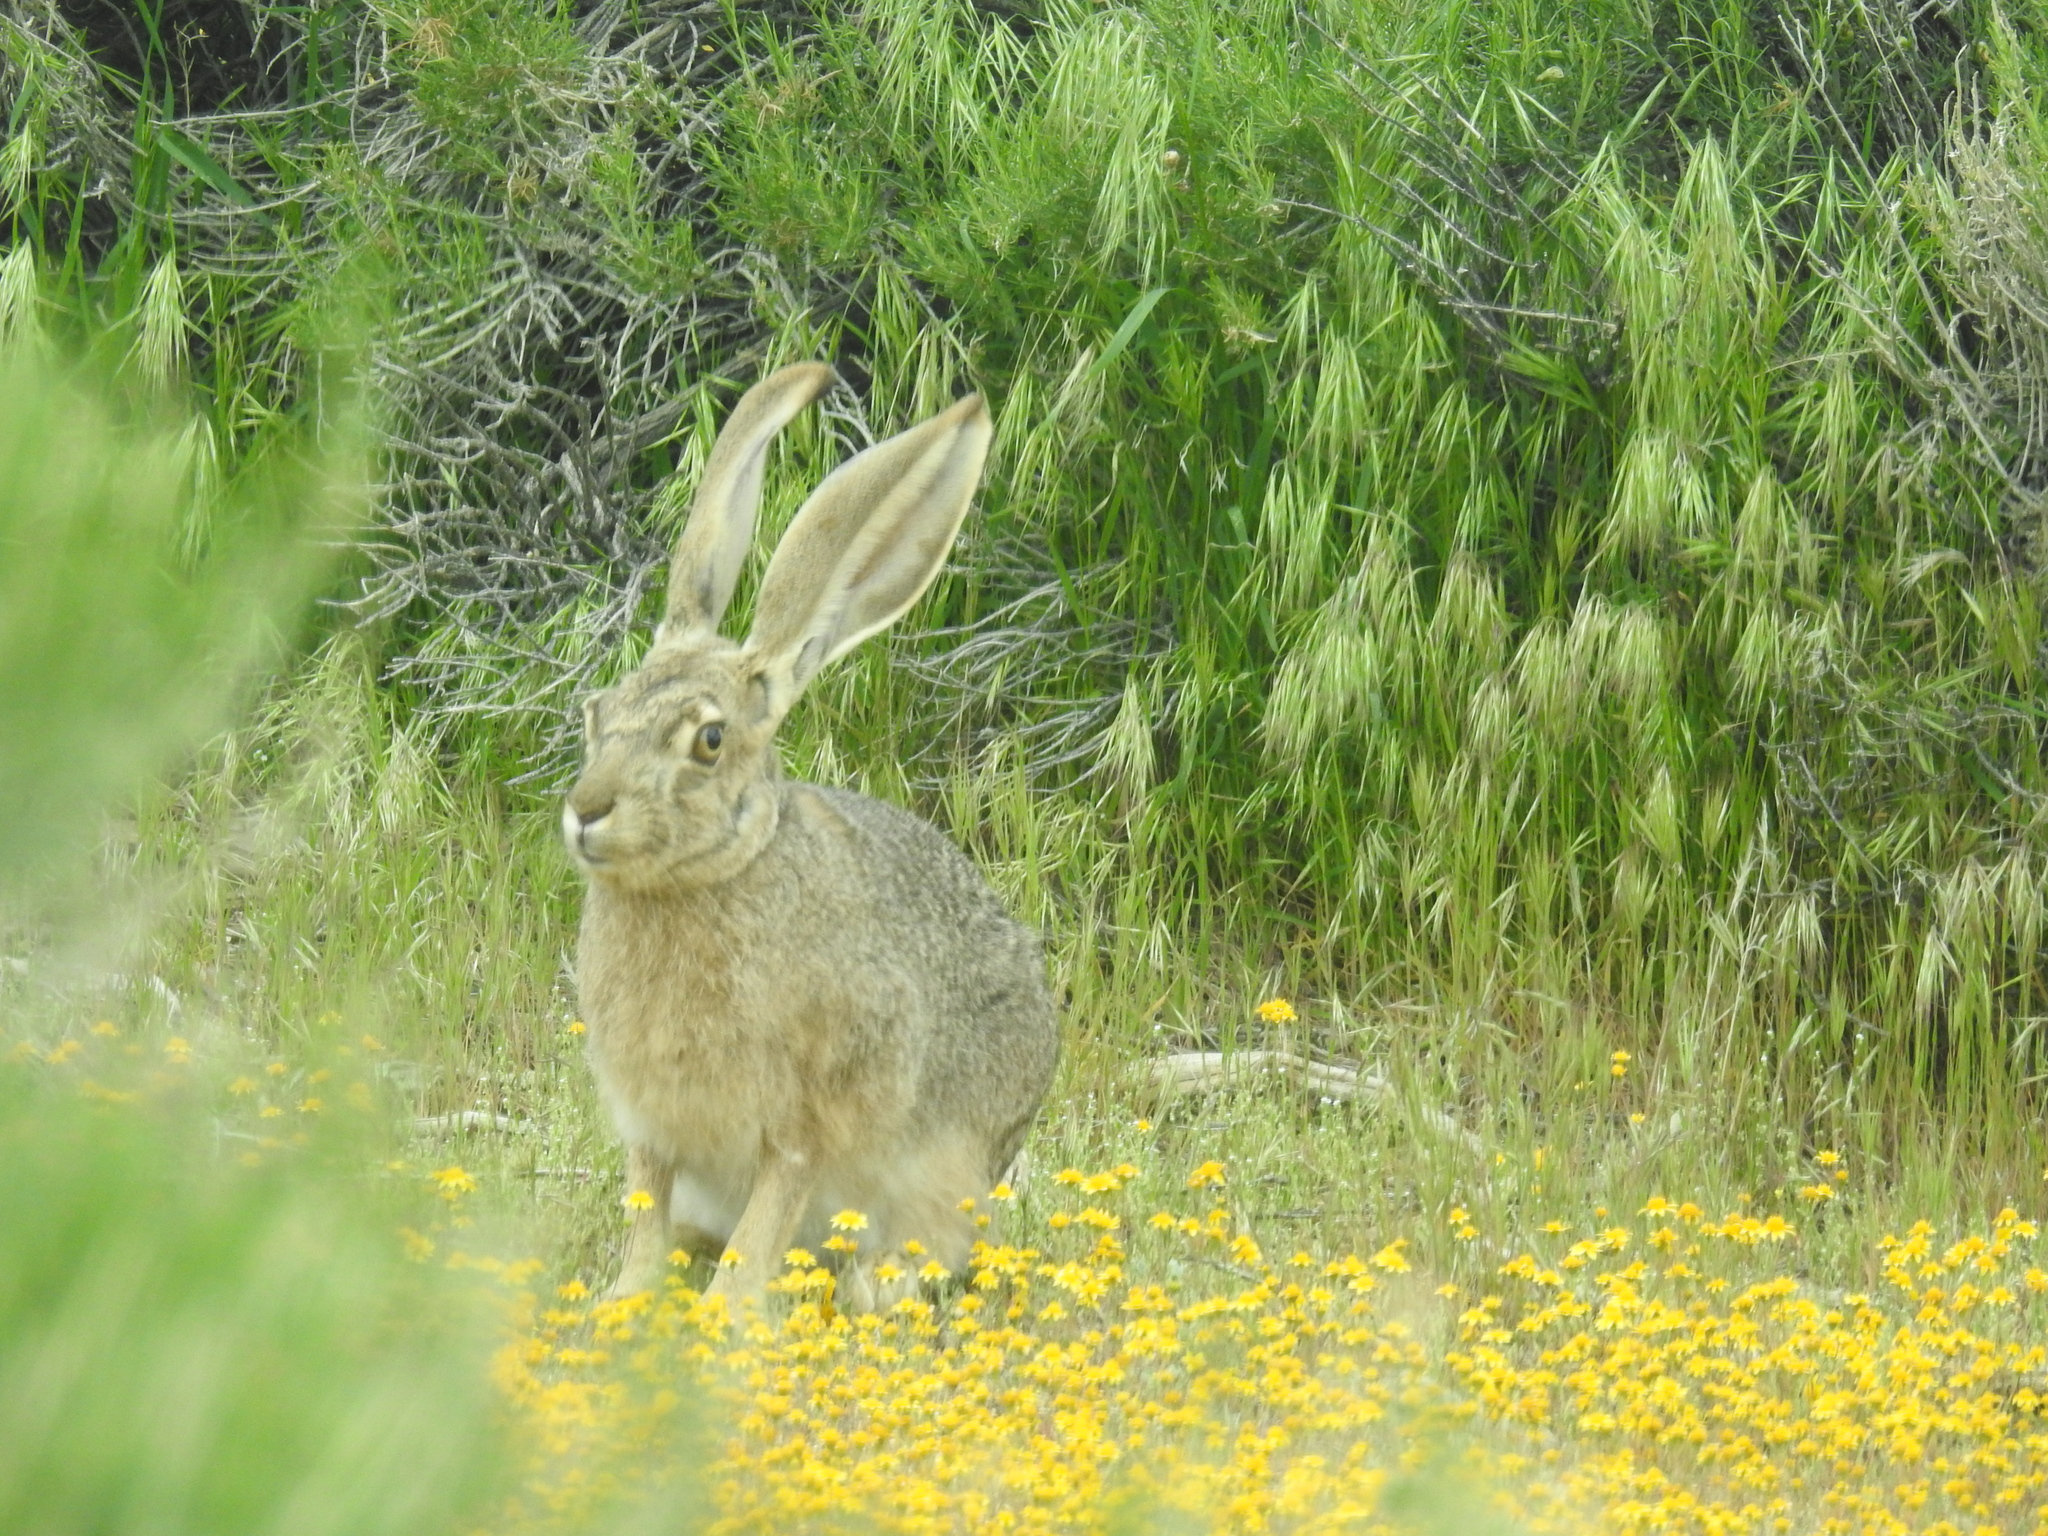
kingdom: Animalia
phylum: Chordata
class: Mammalia
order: Lagomorpha
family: Leporidae
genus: Lepus
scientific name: Lepus californicus
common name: Black-tailed jackrabbit
